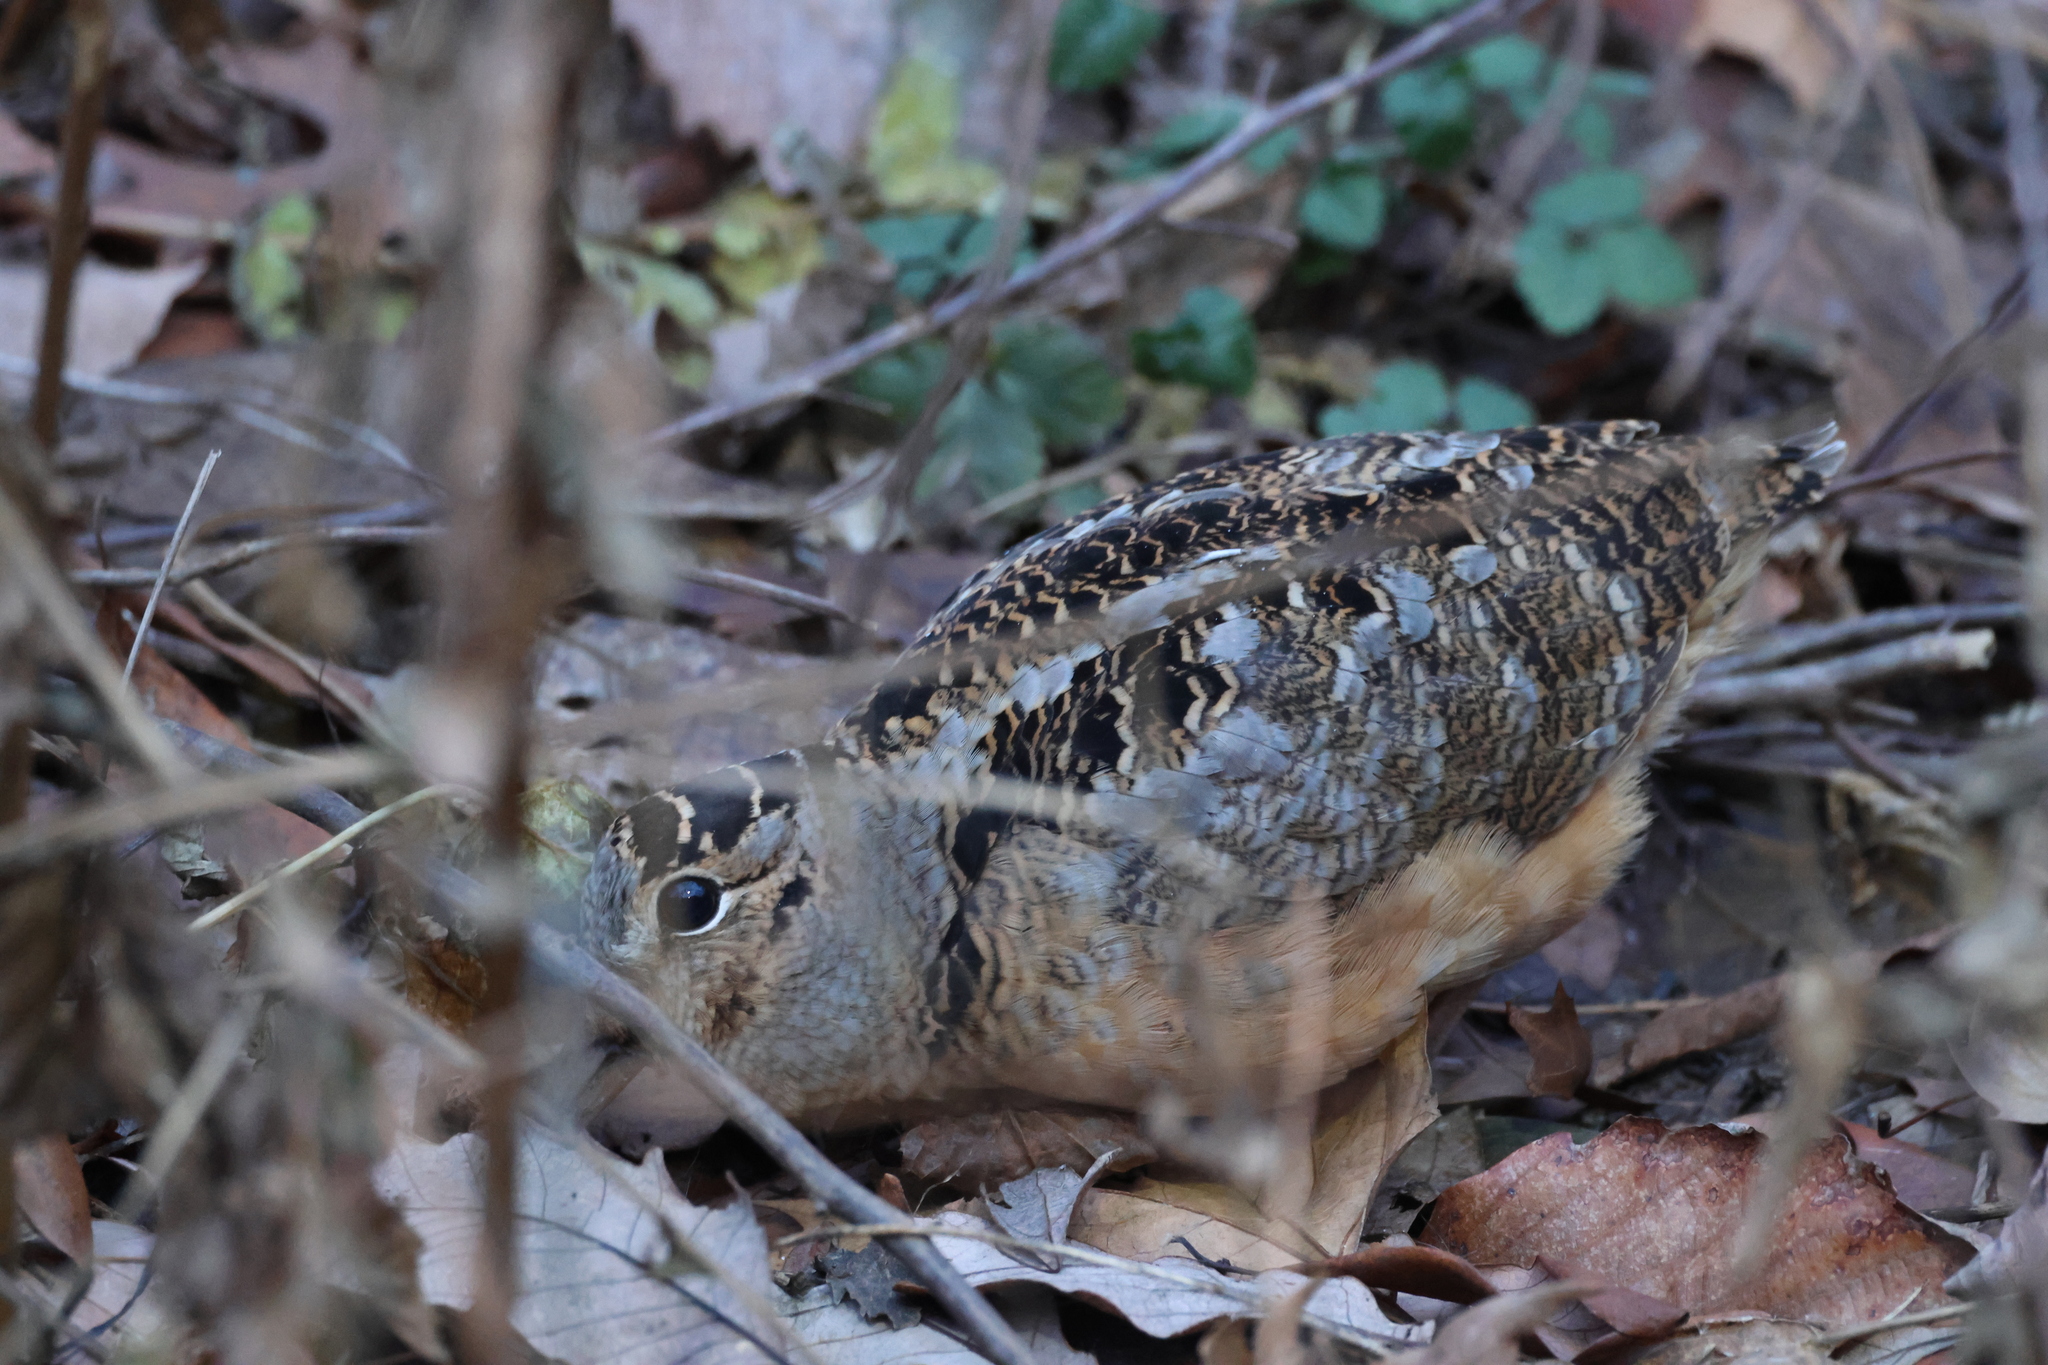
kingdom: Animalia
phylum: Chordata
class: Aves
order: Charadriiformes
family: Scolopacidae
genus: Scolopax
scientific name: Scolopax minor
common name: American woodcock
